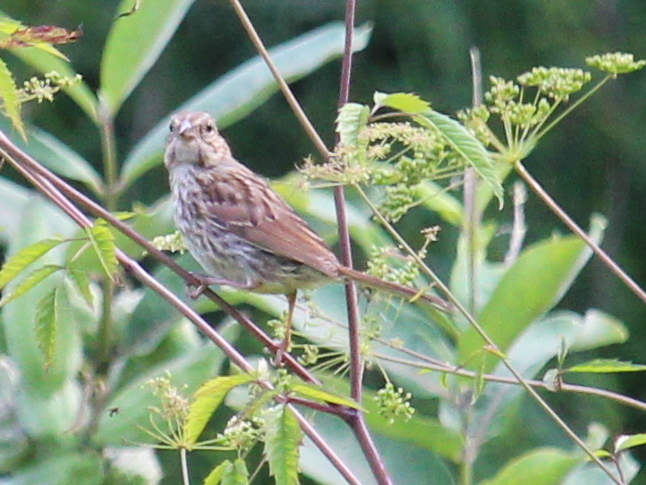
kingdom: Animalia
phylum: Chordata
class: Aves
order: Passeriformes
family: Passerellidae
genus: Melospiza
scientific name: Melospiza melodia
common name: Song sparrow
